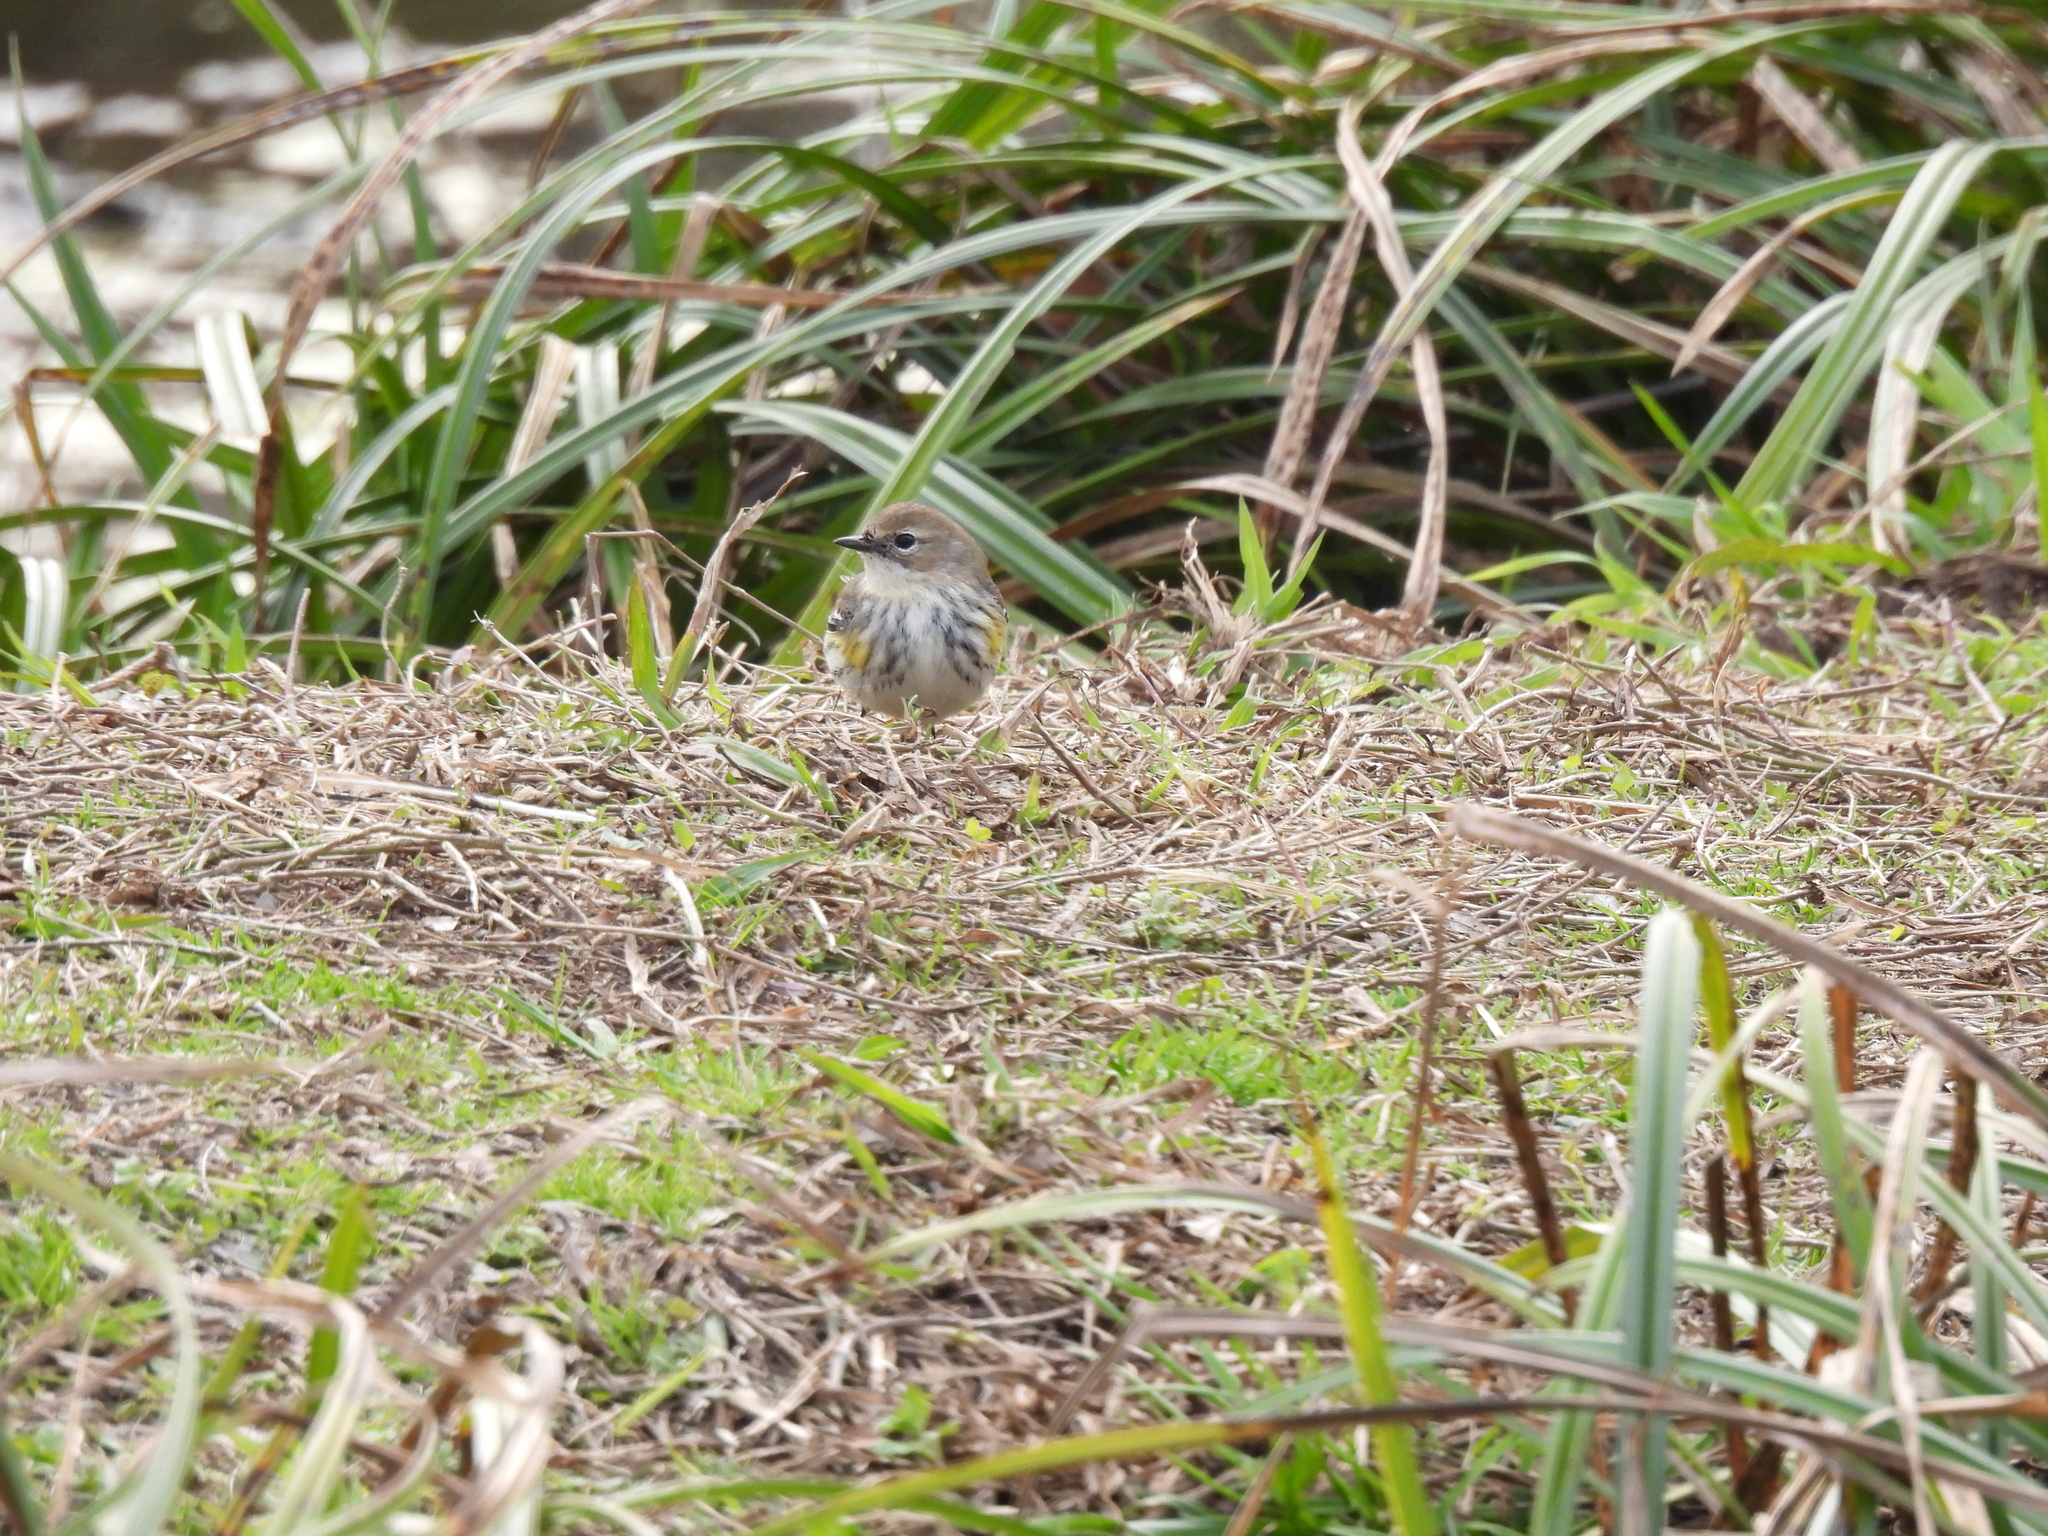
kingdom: Animalia
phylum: Chordata
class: Aves
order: Passeriformes
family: Parulidae
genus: Setophaga
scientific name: Setophaga coronata
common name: Myrtle warbler
